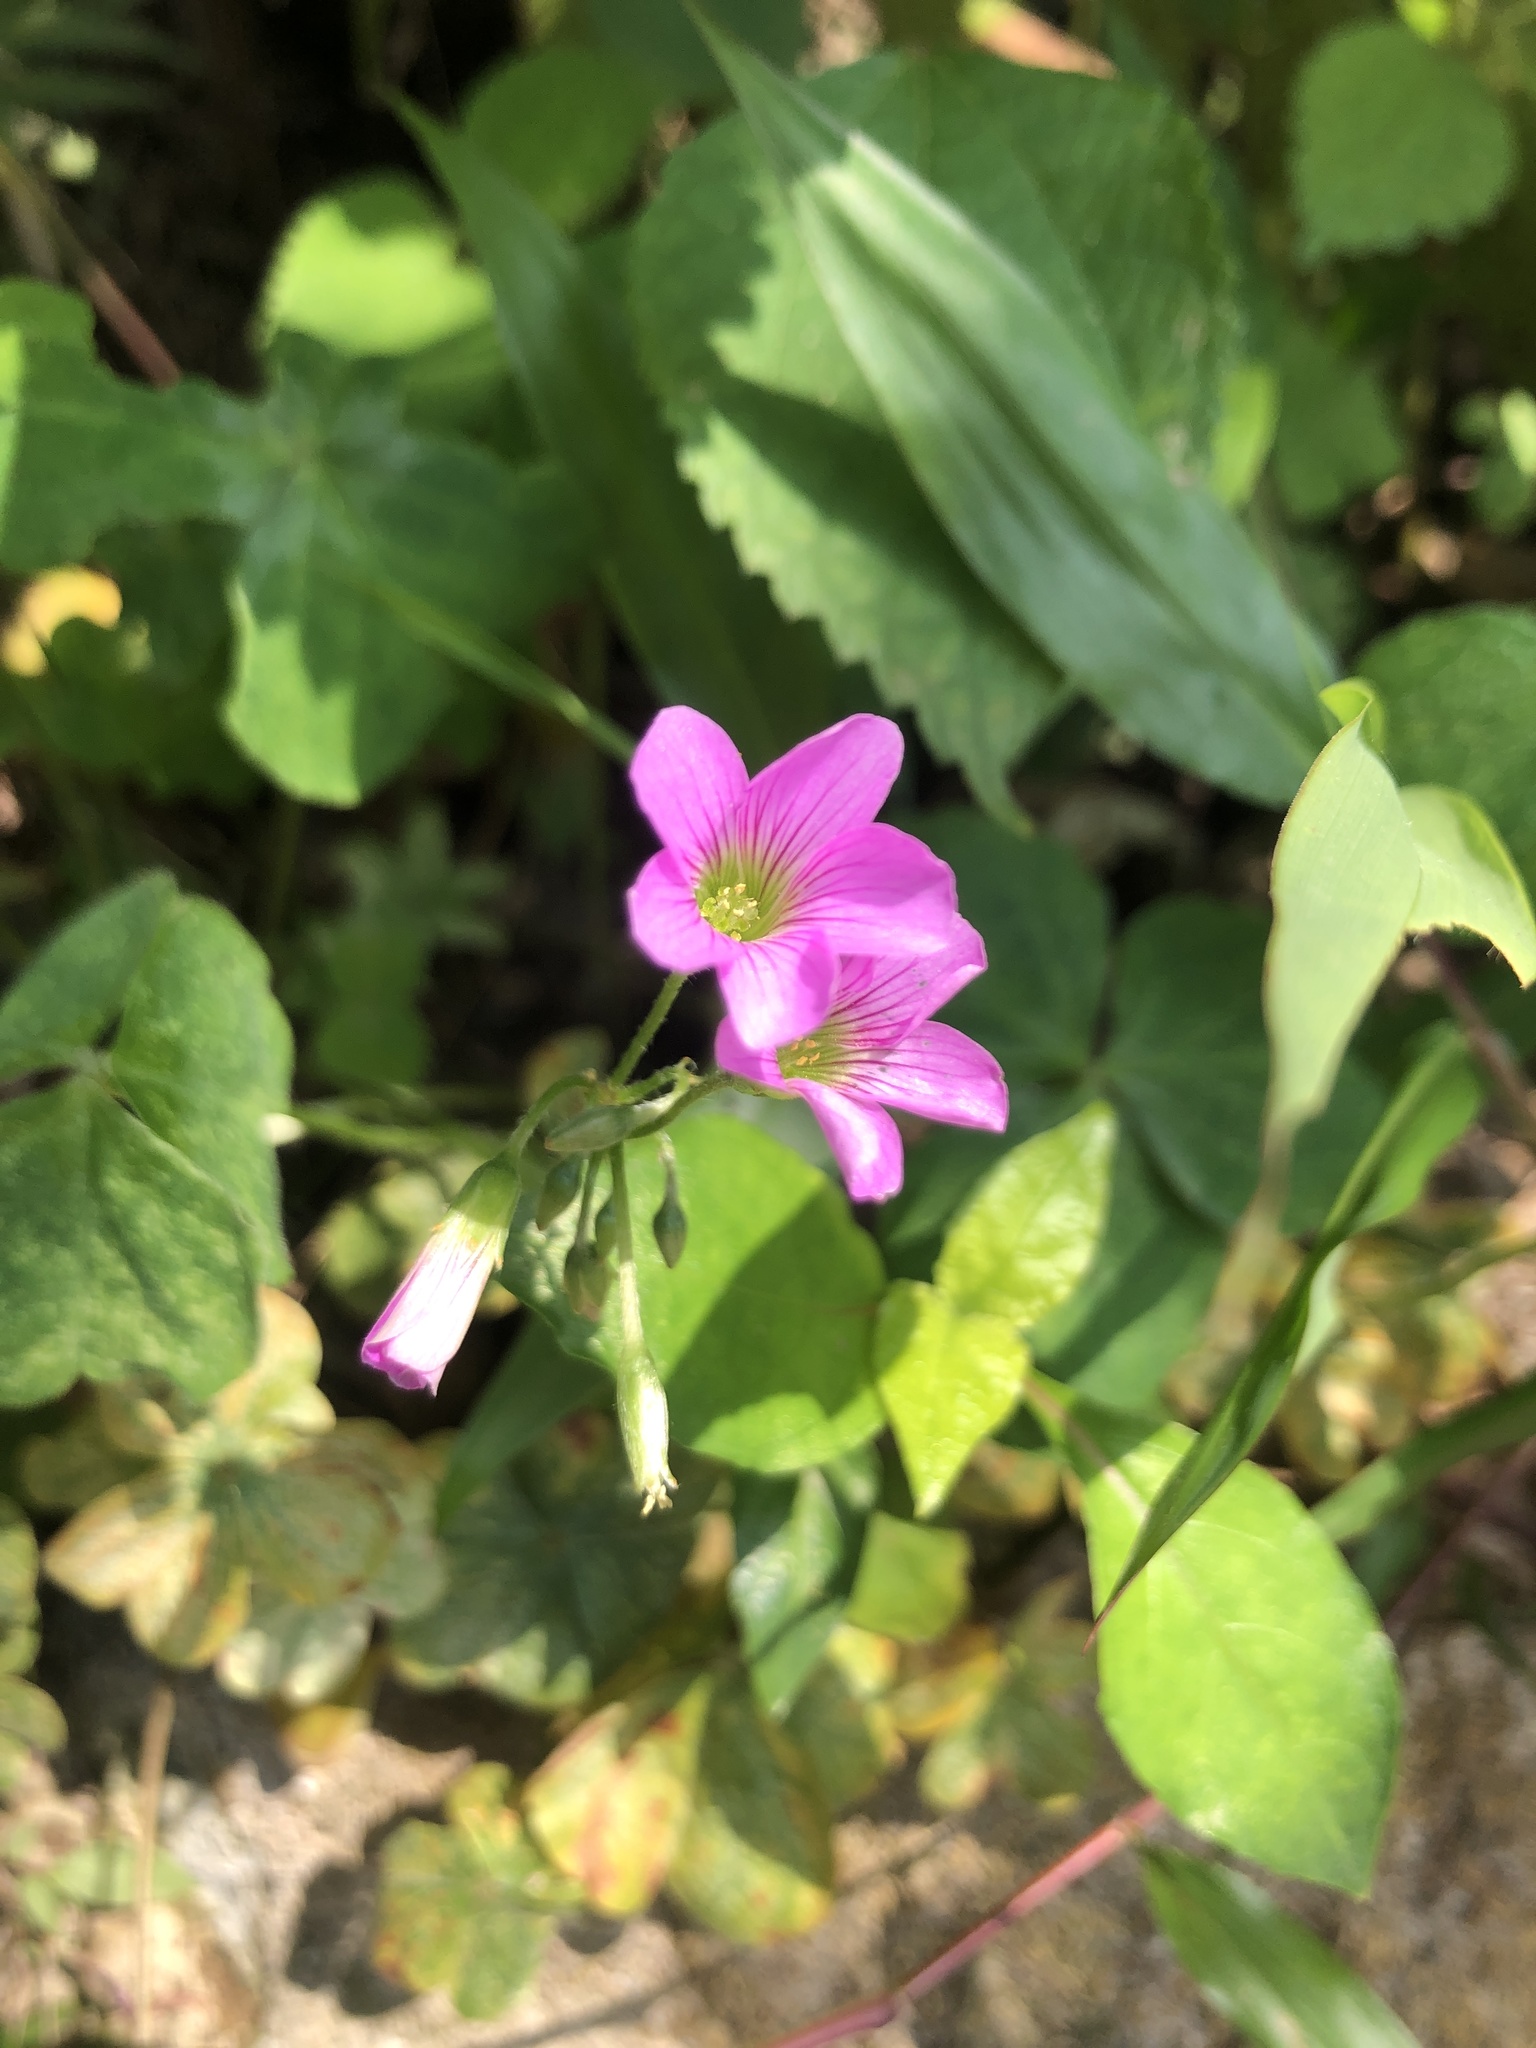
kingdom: Plantae
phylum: Tracheophyta
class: Magnoliopsida
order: Oxalidales
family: Oxalidaceae
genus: Oxalis
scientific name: Oxalis debilis
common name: Large-flowered pink-sorrel
